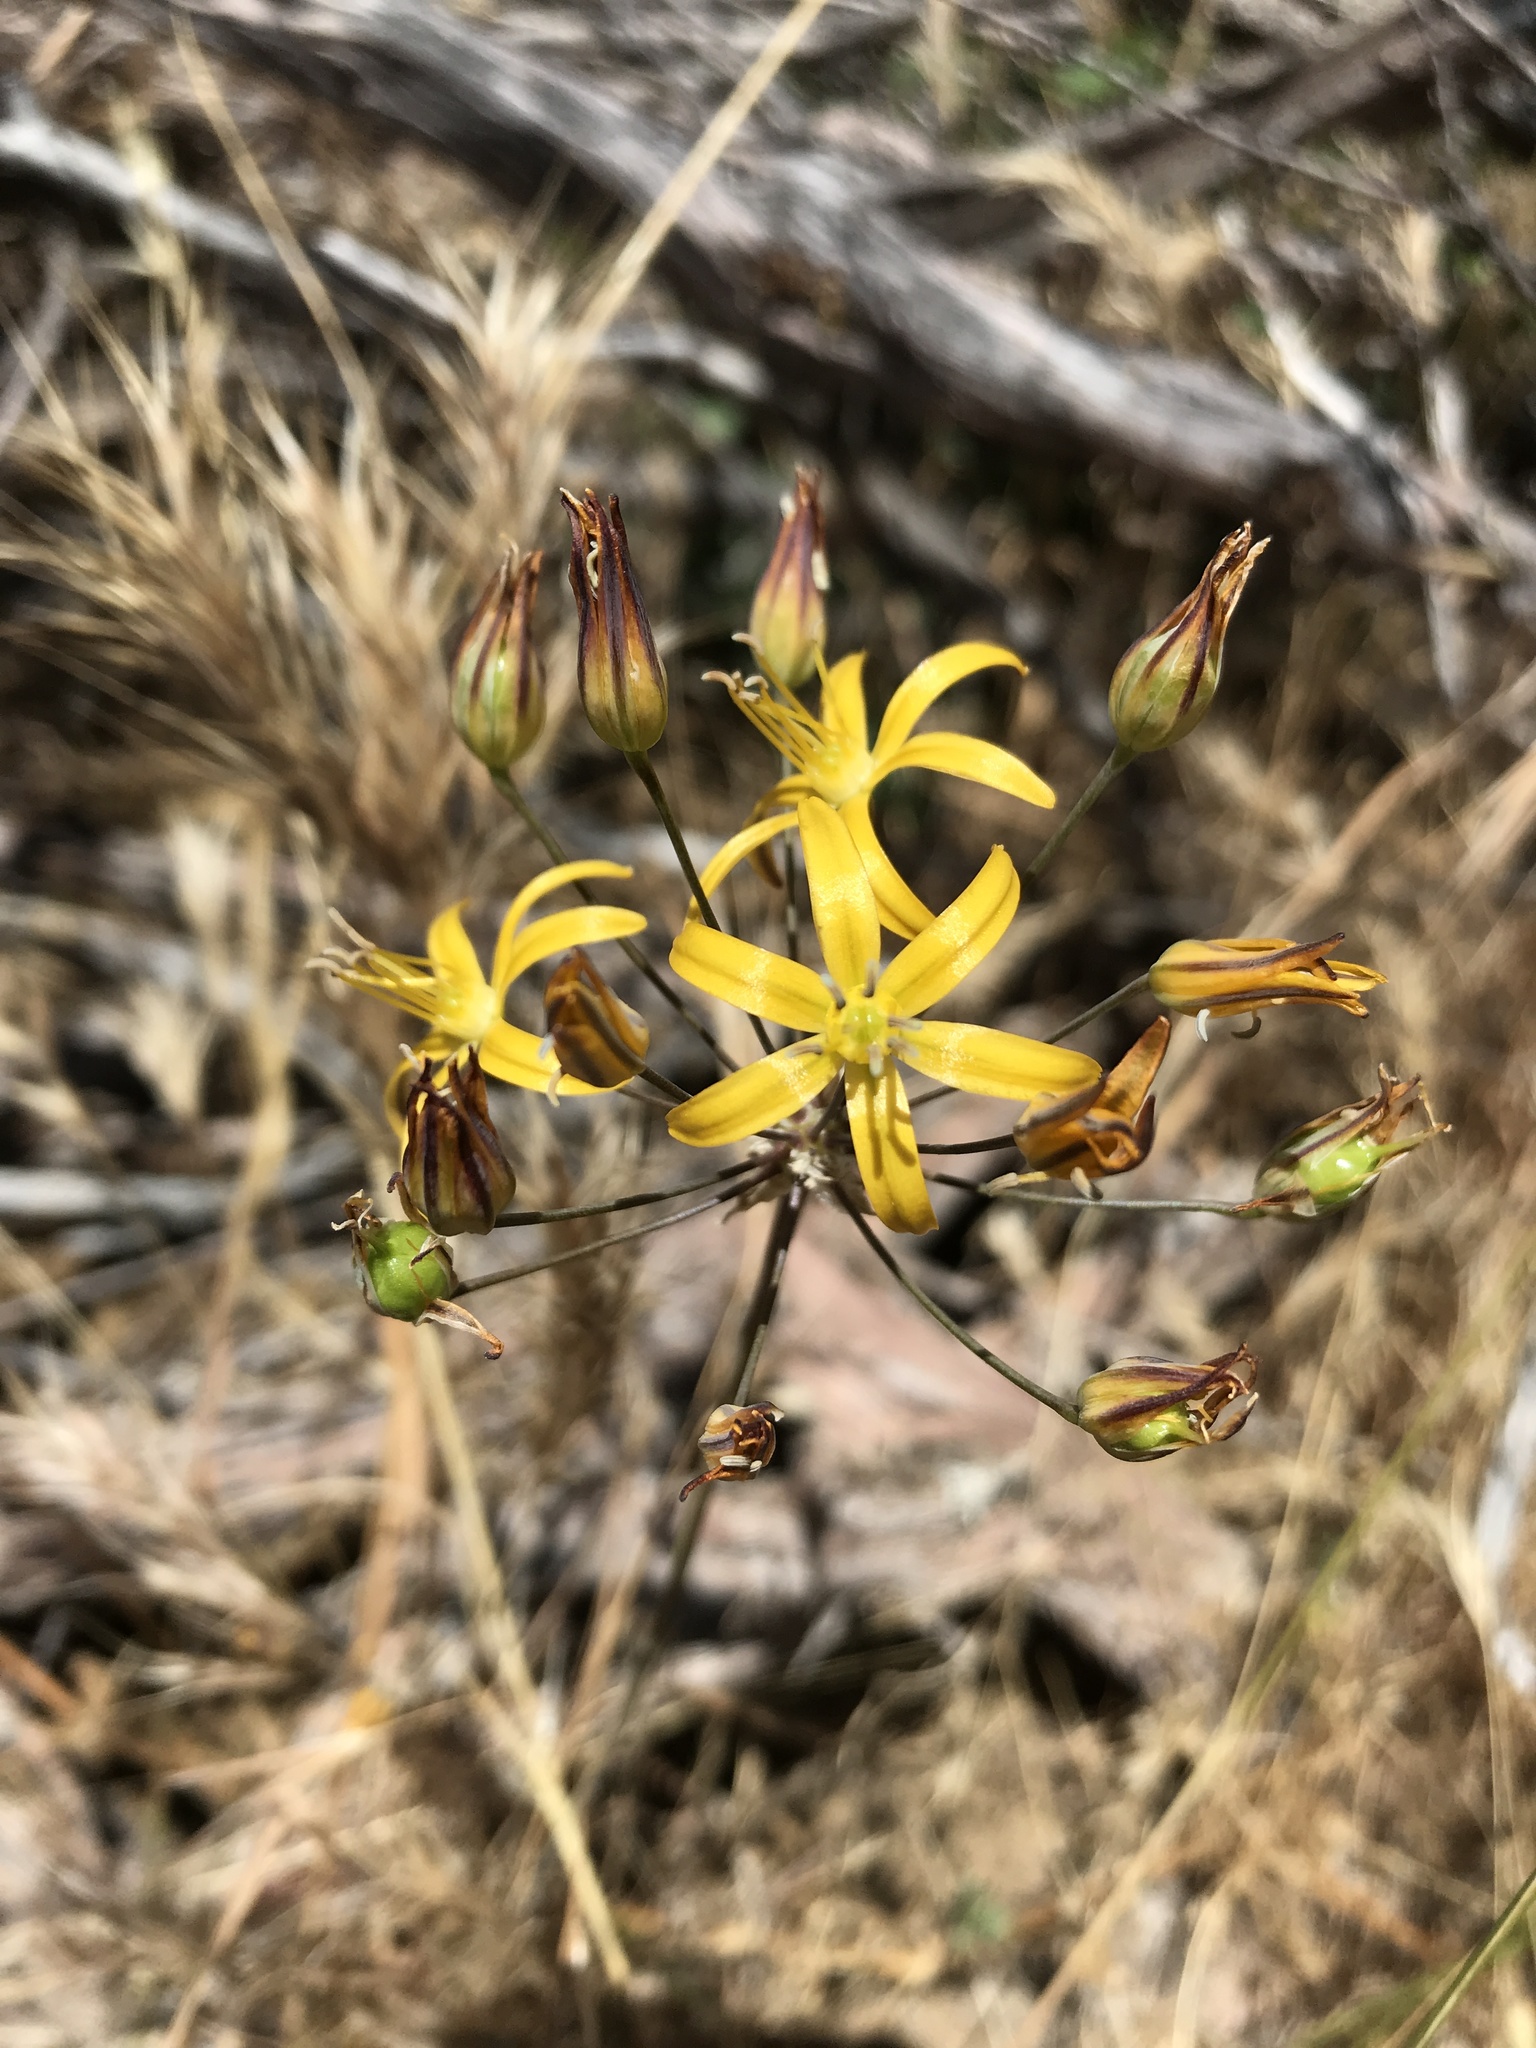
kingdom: Plantae
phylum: Tracheophyta
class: Liliopsida
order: Asparagales
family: Asparagaceae
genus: Bloomeria
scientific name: Bloomeria crocea
